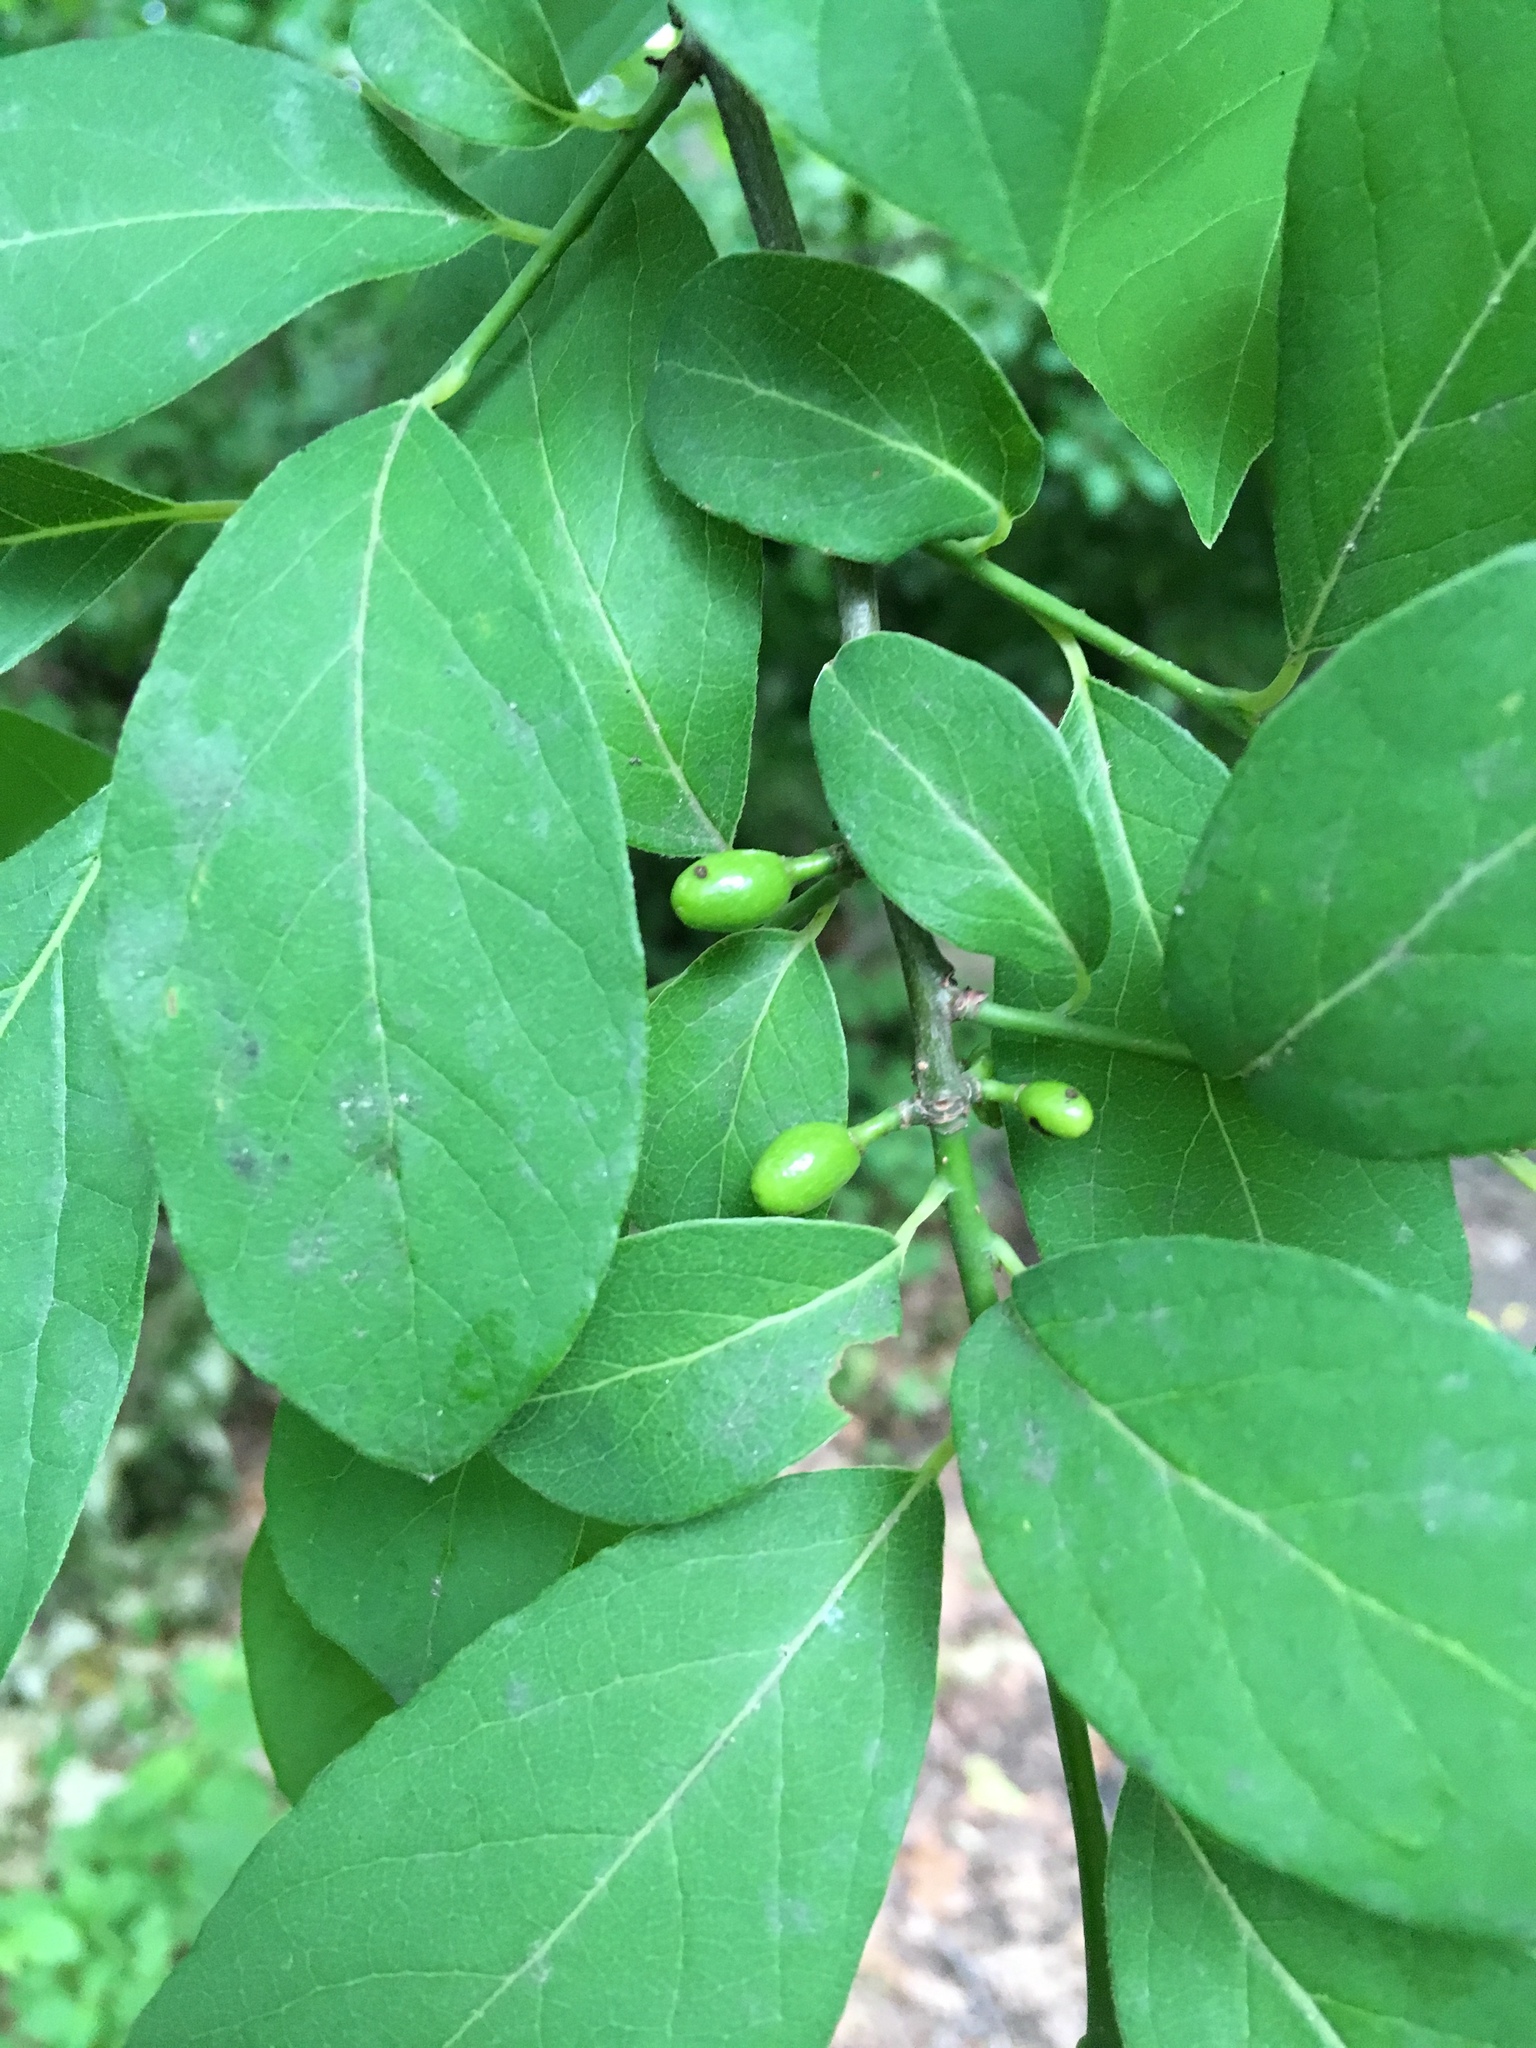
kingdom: Plantae
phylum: Tracheophyta
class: Magnoliopsida
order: Laurales
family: Lauraceae
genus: Lindera
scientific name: Lindera benzoin
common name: Spicebush
